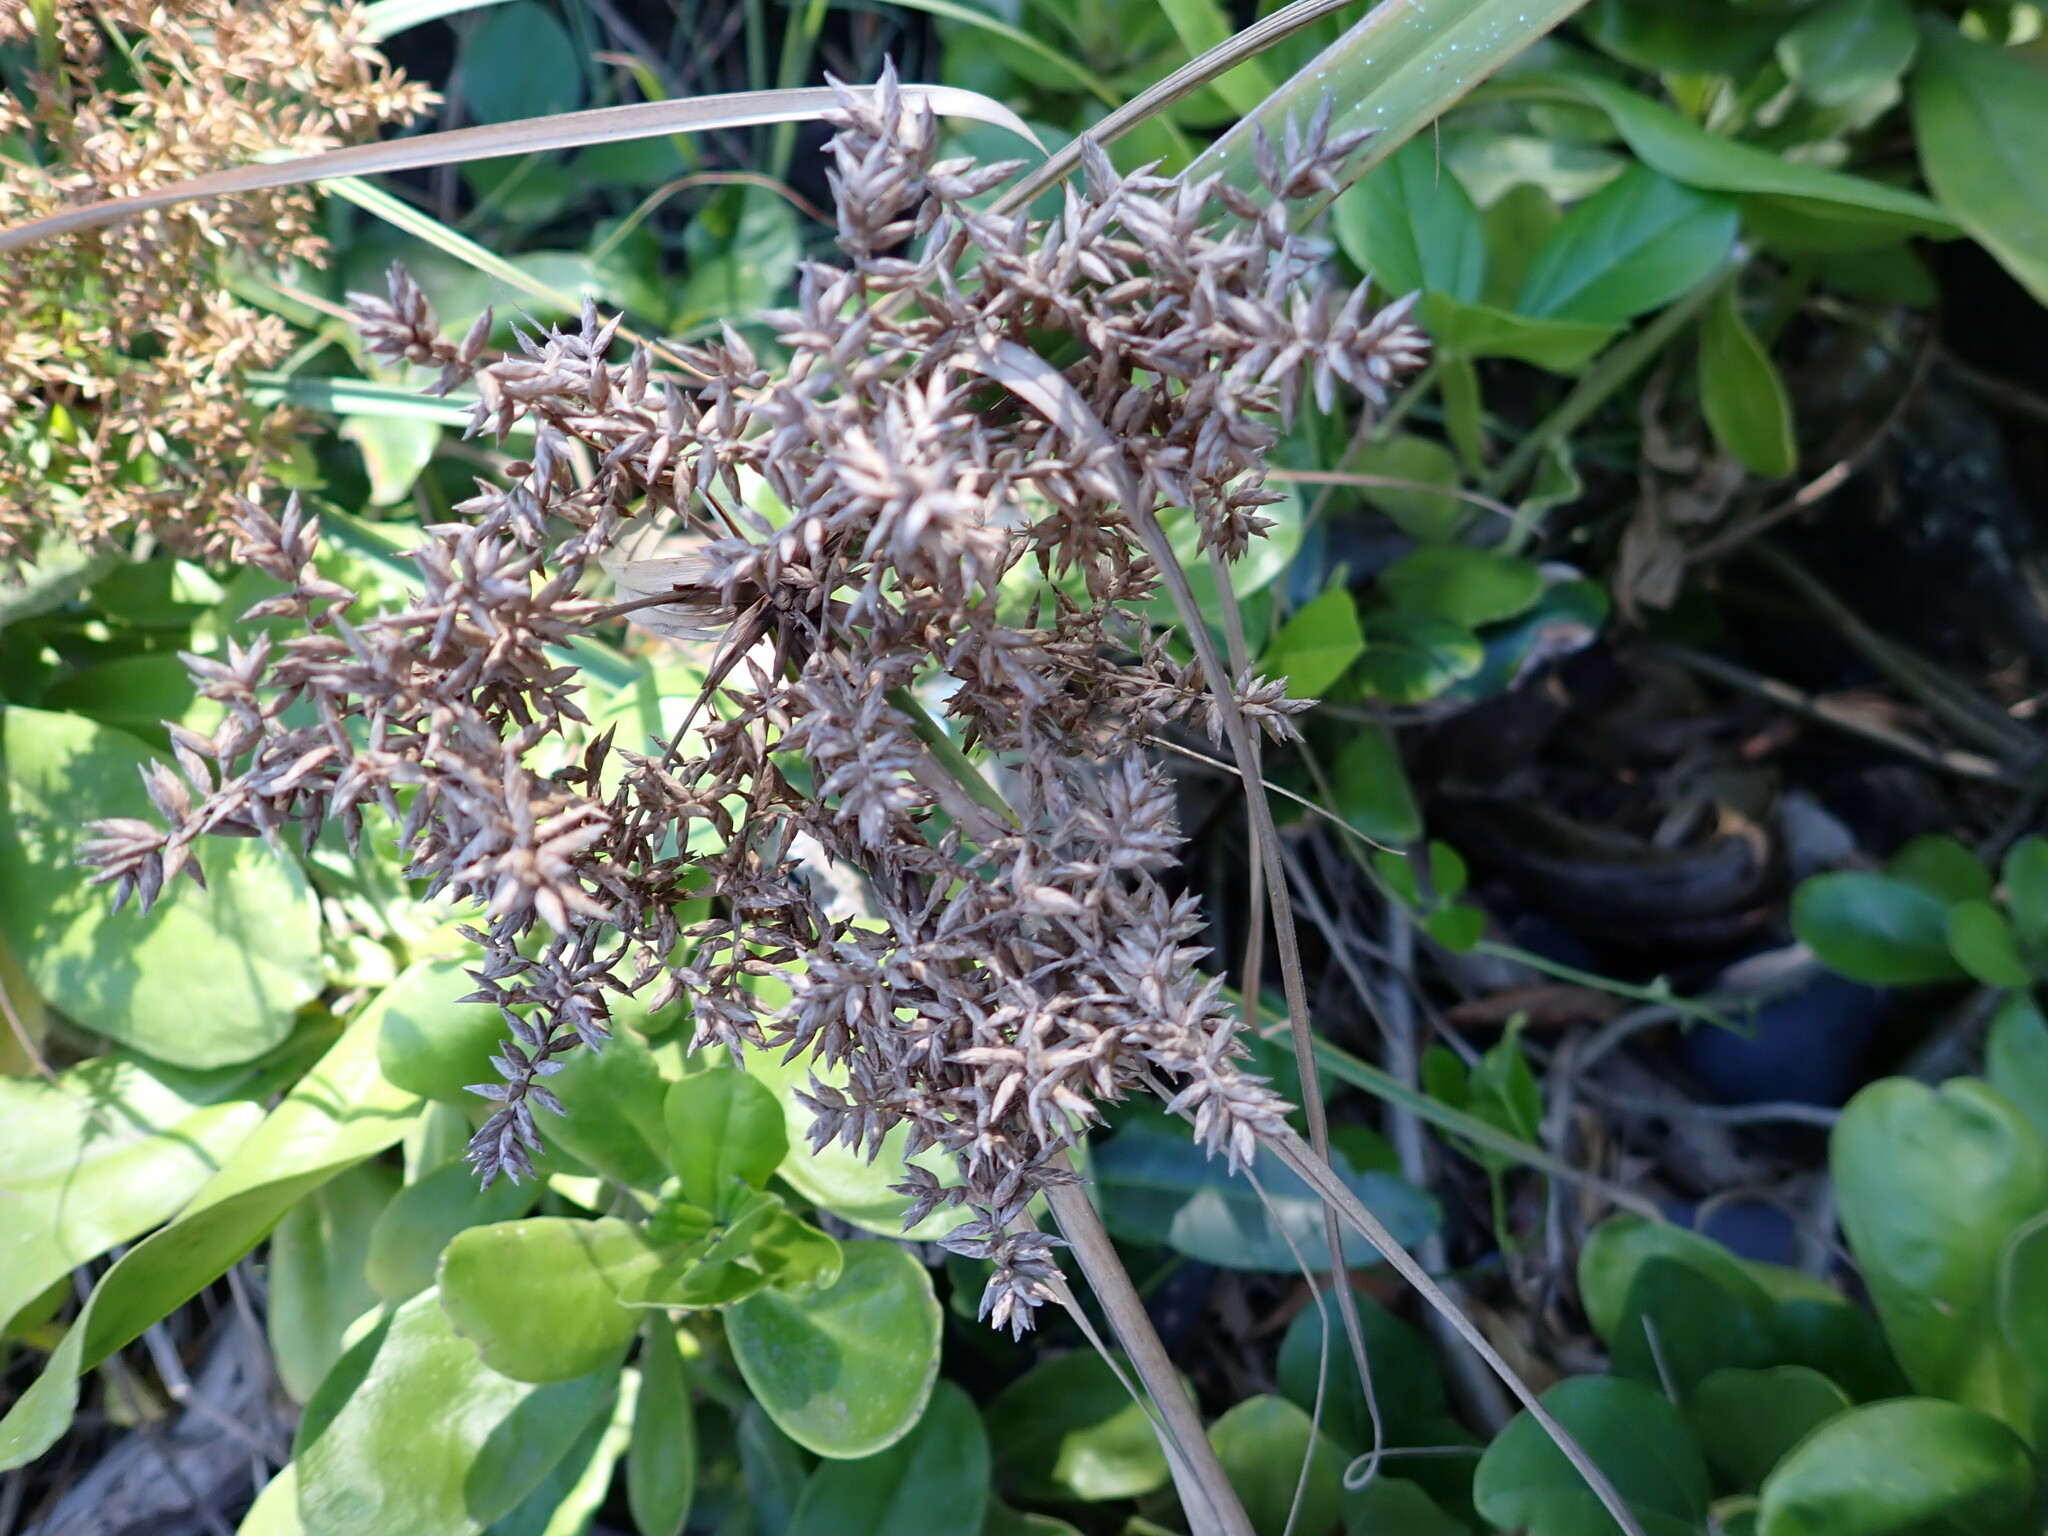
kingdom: Plantae
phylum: Tracheophyta
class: Liliopsida
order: Poales
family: Cyperaceae
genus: Cyperus
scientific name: Cyperus javanicus
